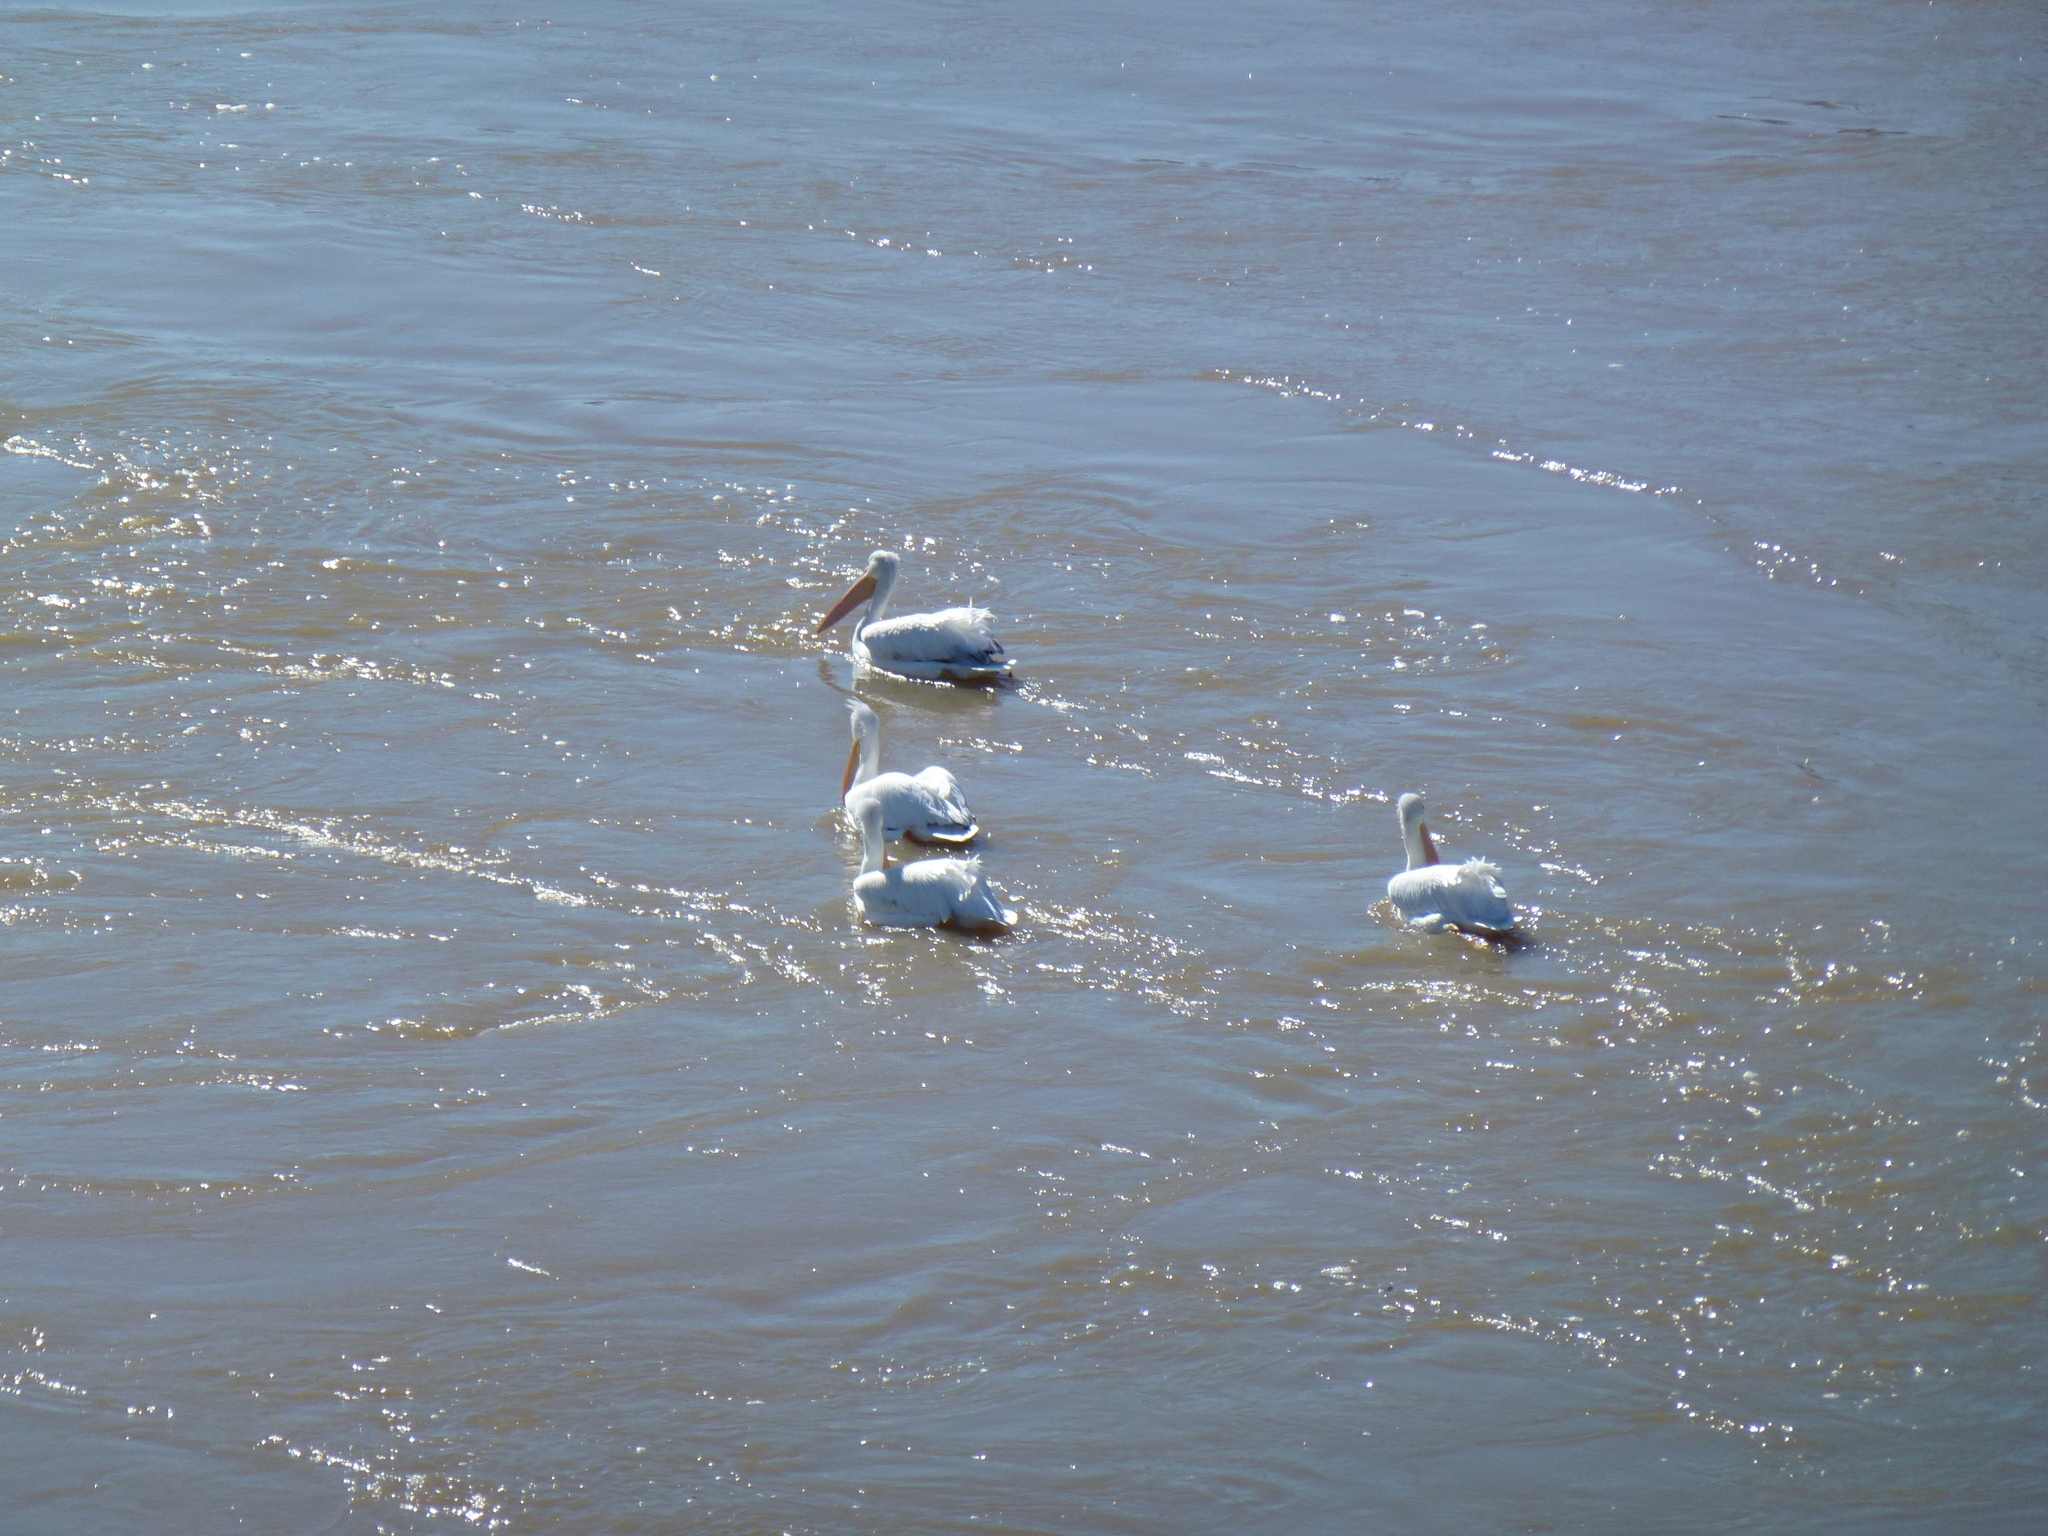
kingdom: Animalia
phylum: Chordata
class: Aves
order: Pelecaniformes
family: Pelecanidae
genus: Pelecanus
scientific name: Pelecanus erythrorhynchos
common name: American white pelican
